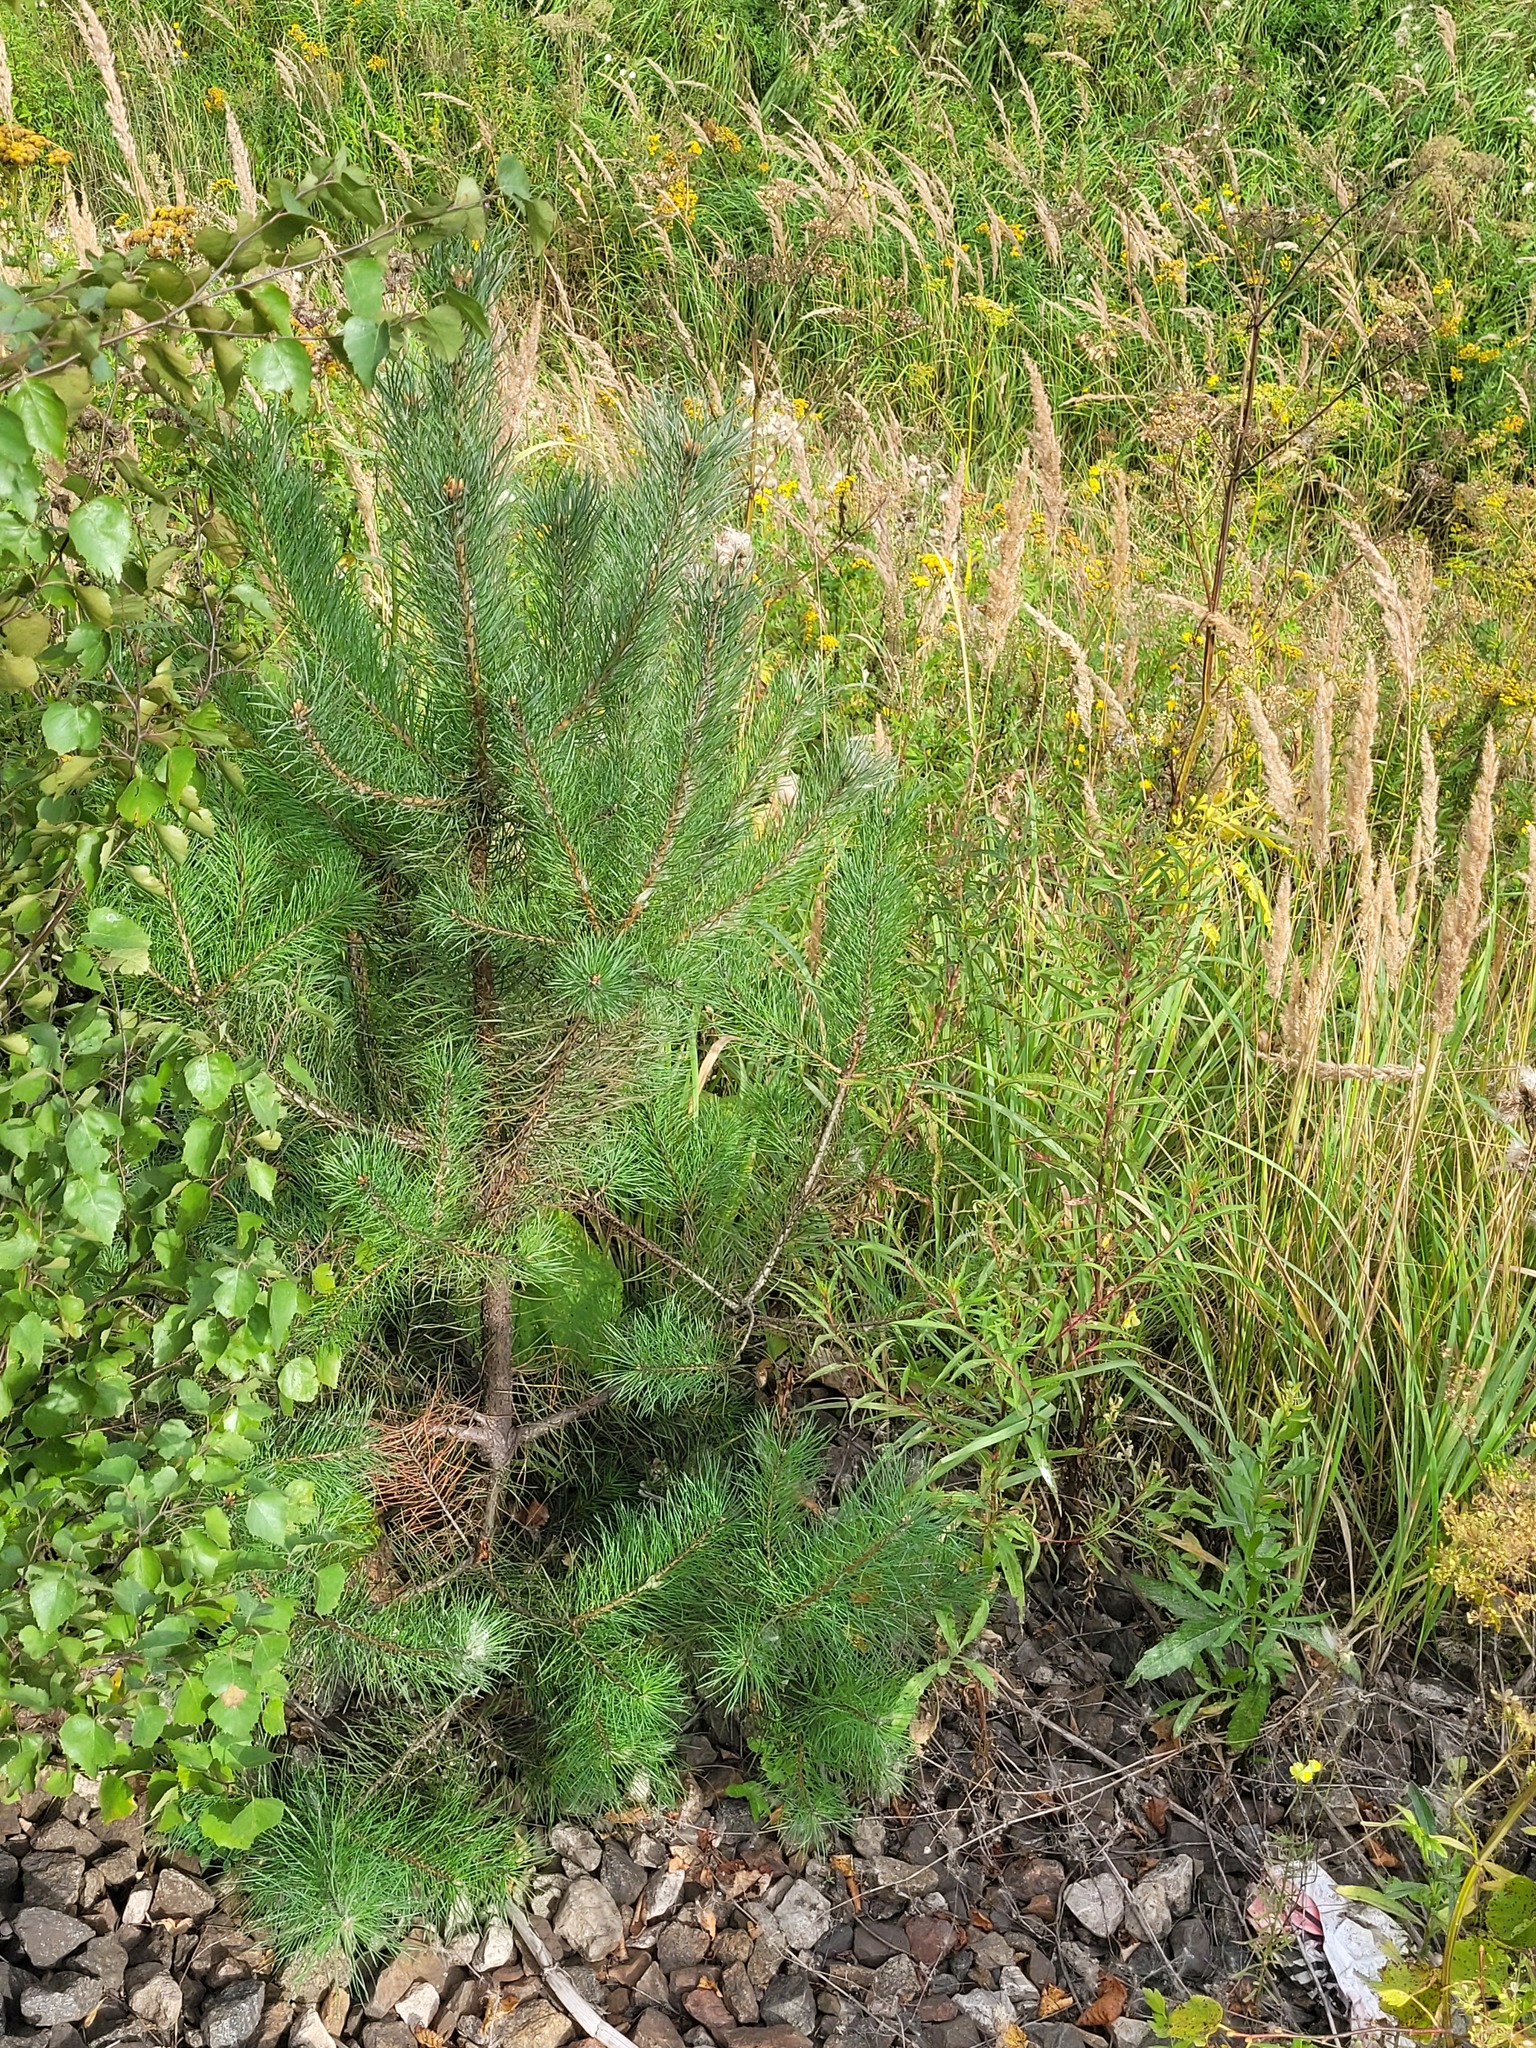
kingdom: Plantae
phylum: Tracheophyta
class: Pinopsida
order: Pinales
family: Pinaceae
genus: Pinus
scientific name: Pinus sylvestris
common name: Scots pine
